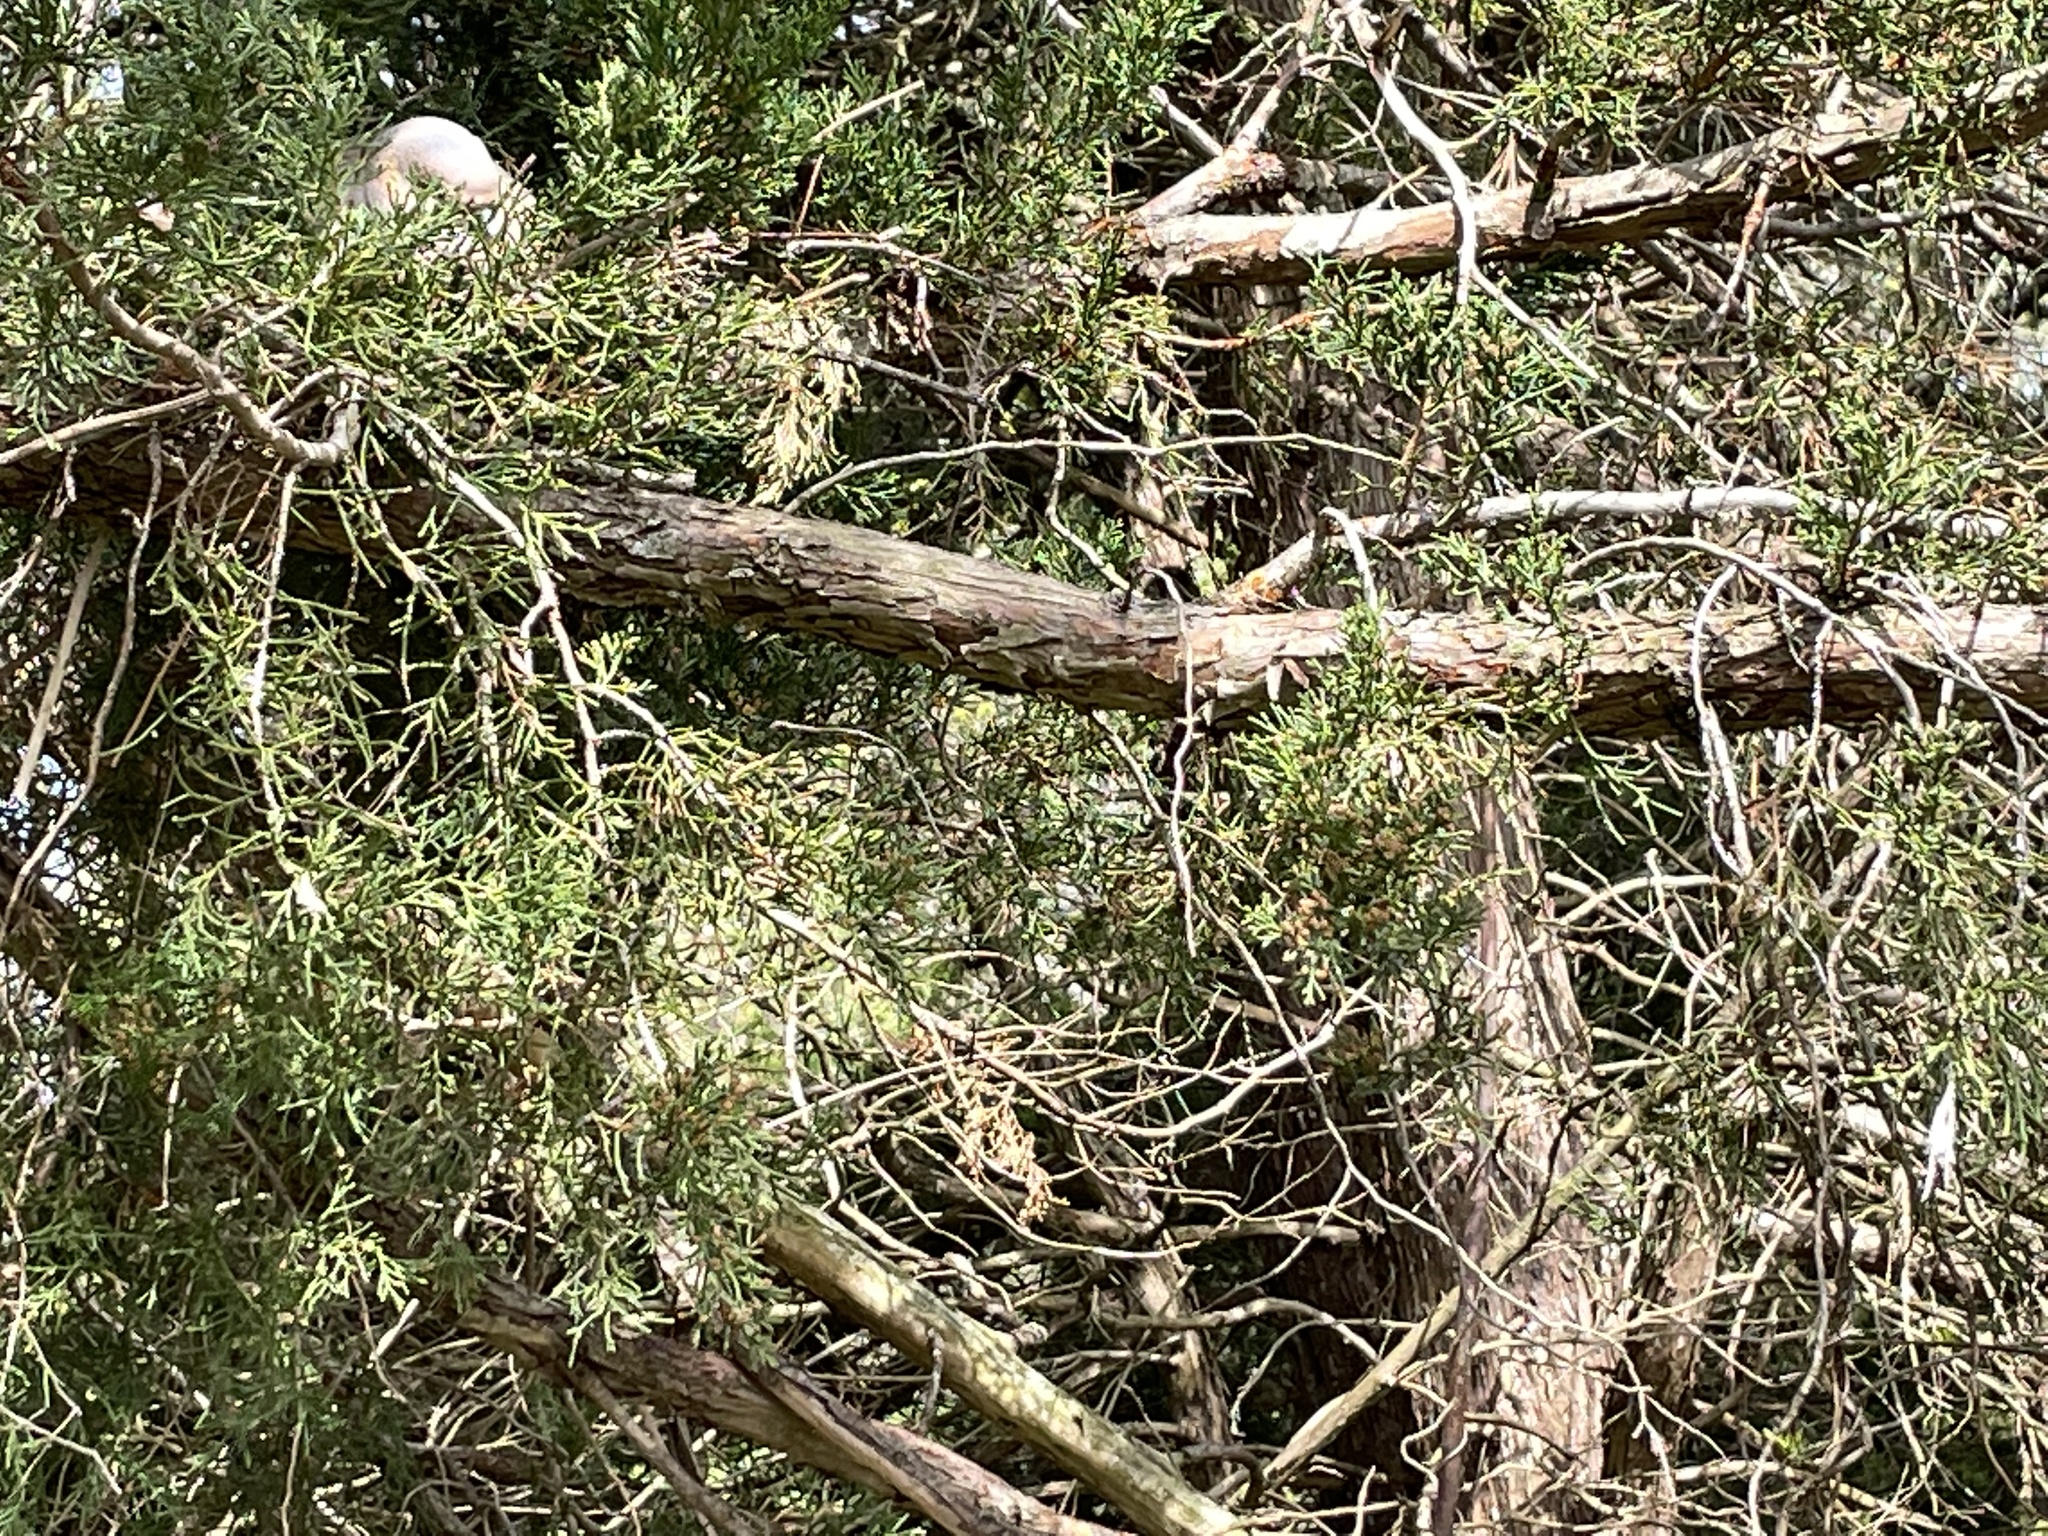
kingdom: Animalia
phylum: Chordata
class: Aves
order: Columbiformes
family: Columbidae
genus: Zenaida
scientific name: Zenaida macroura
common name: Mourning dove
